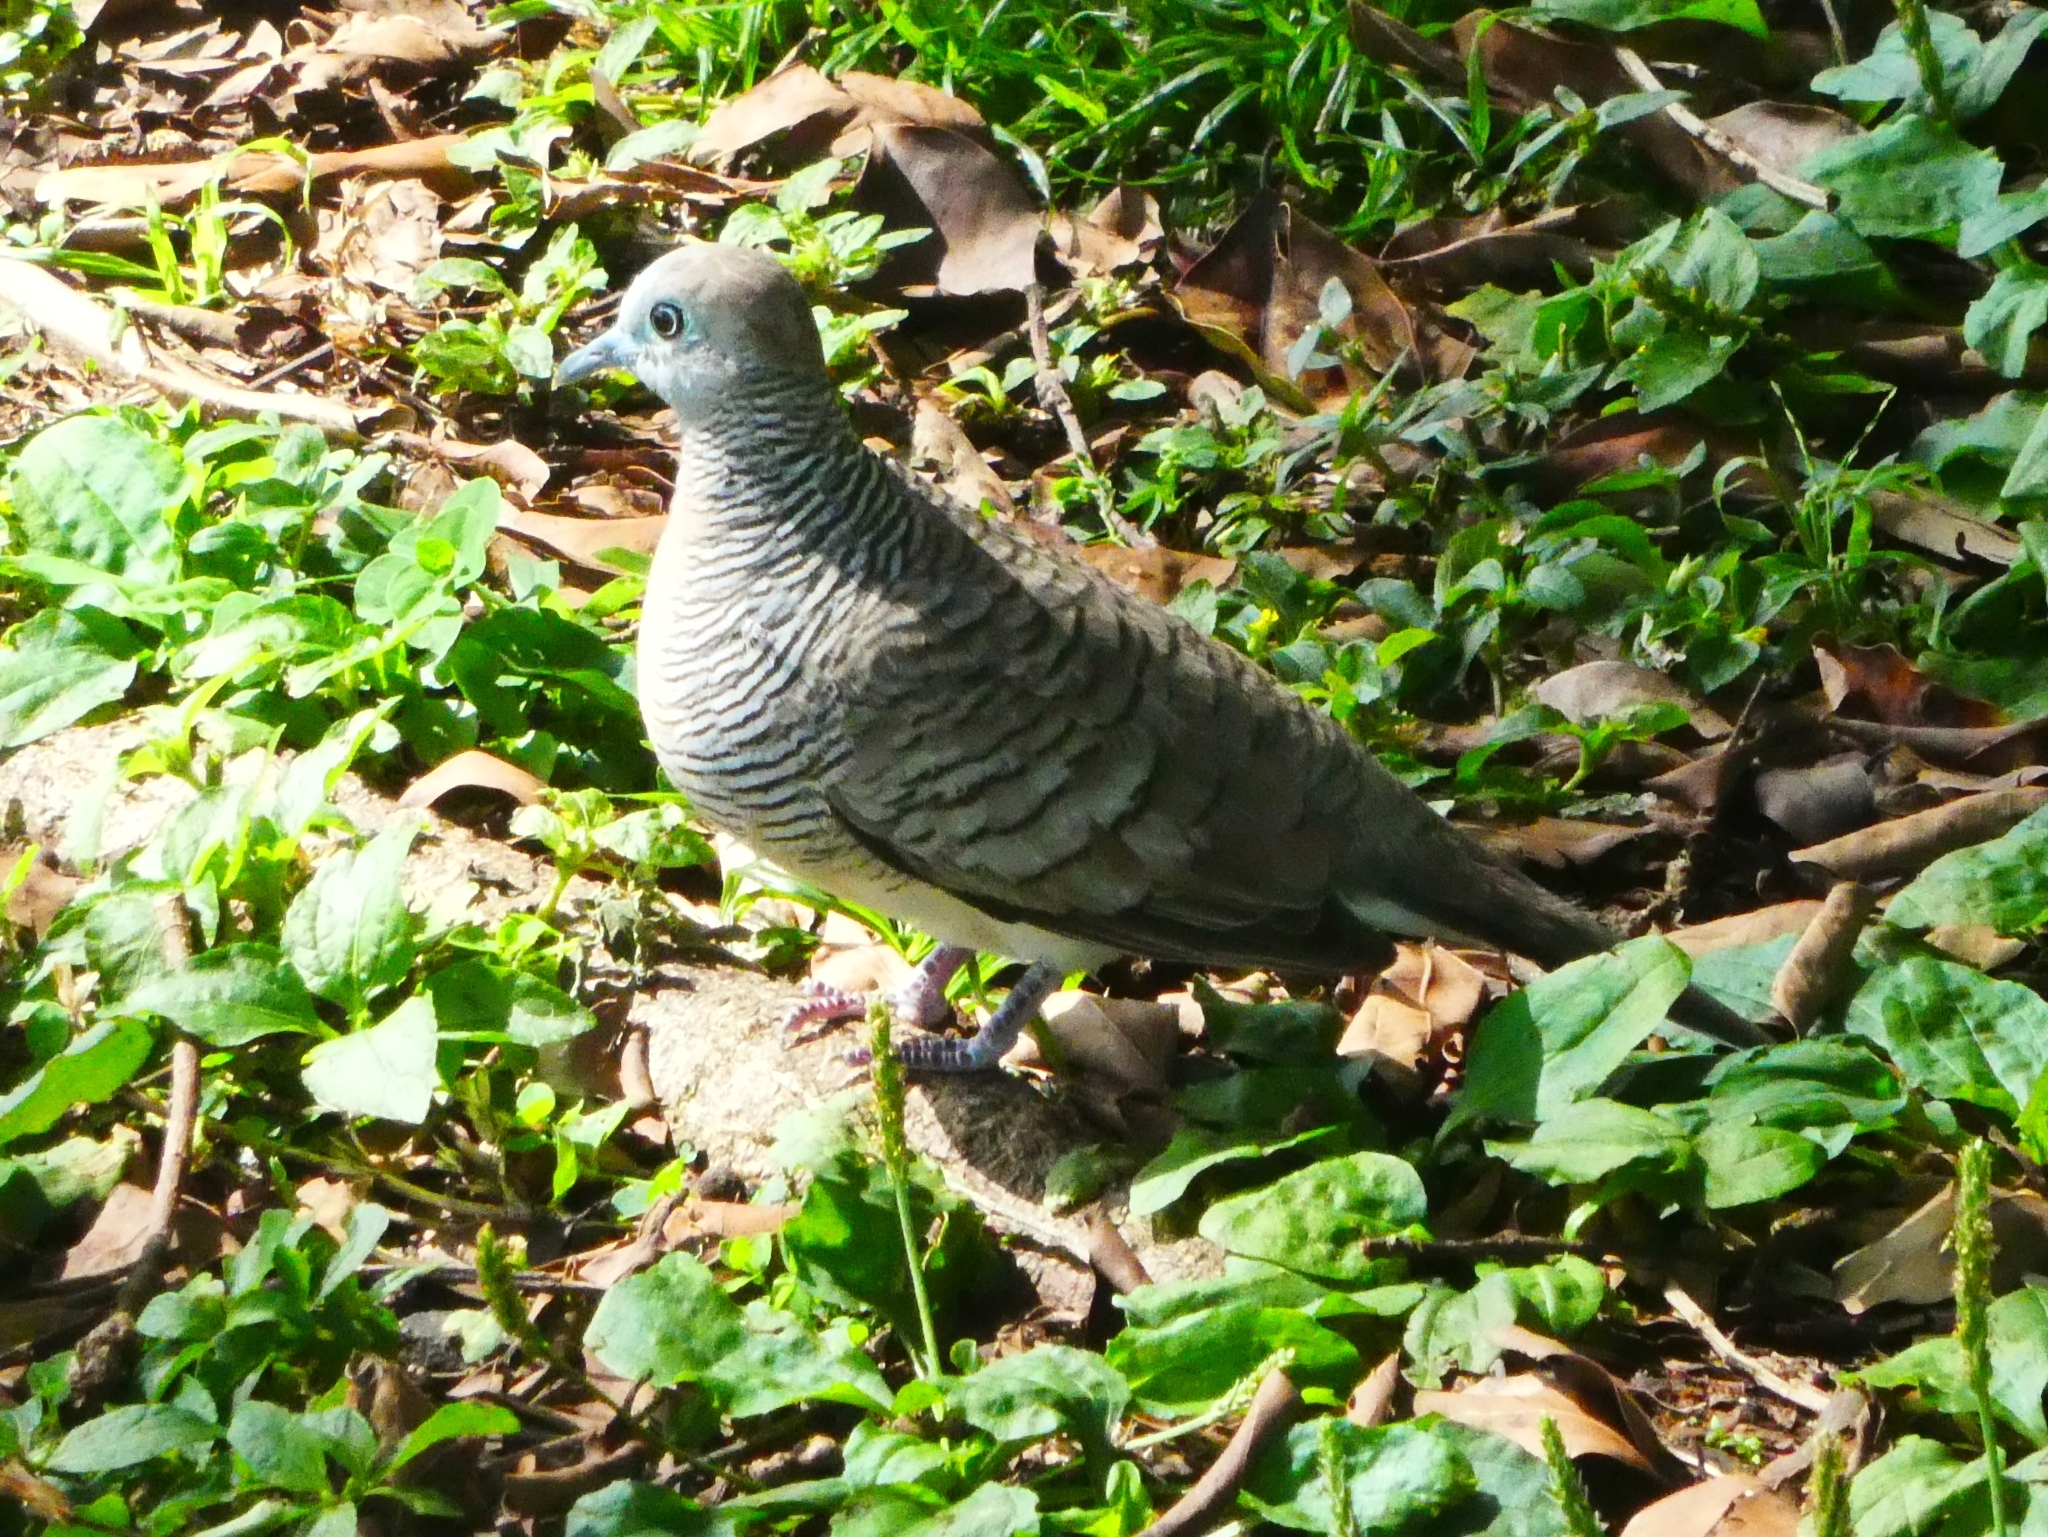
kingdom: Animalia
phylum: Chordata
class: Aves
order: Columbiformes
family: Columbidae
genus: Geopelia
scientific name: Geopelia striata
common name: Zebra dove
